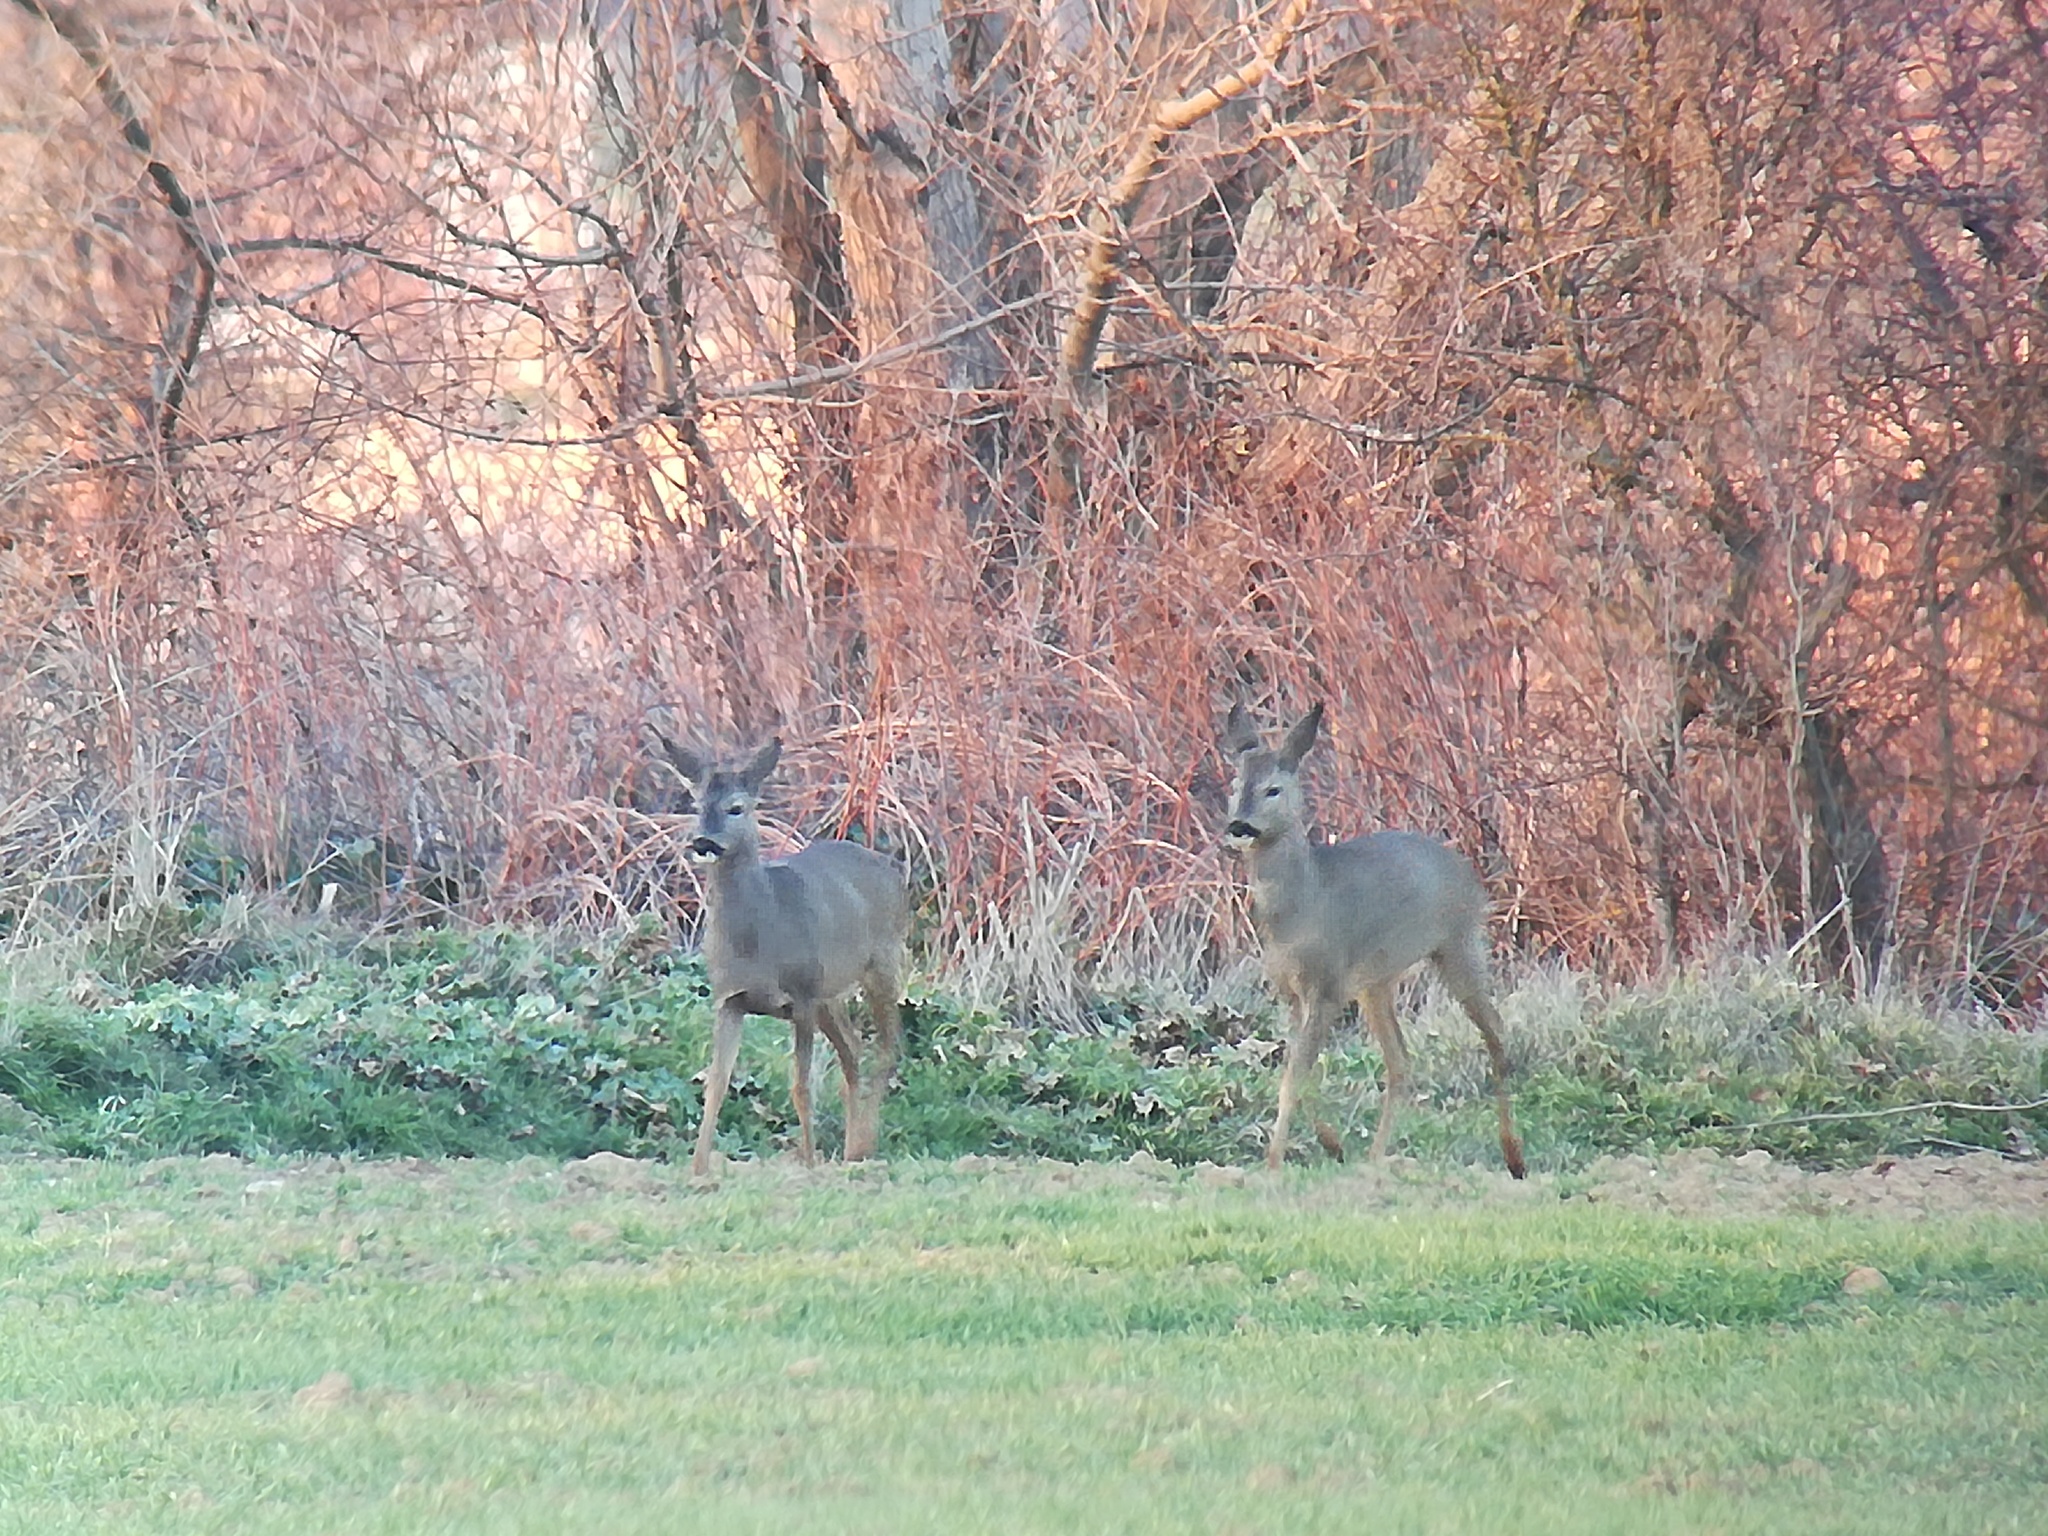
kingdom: Animalia
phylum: Chordata
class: Mammalia
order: Artiodactyla
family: Cervidae
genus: Capreolus
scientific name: Capreolus capreolus
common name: Western roe deer
